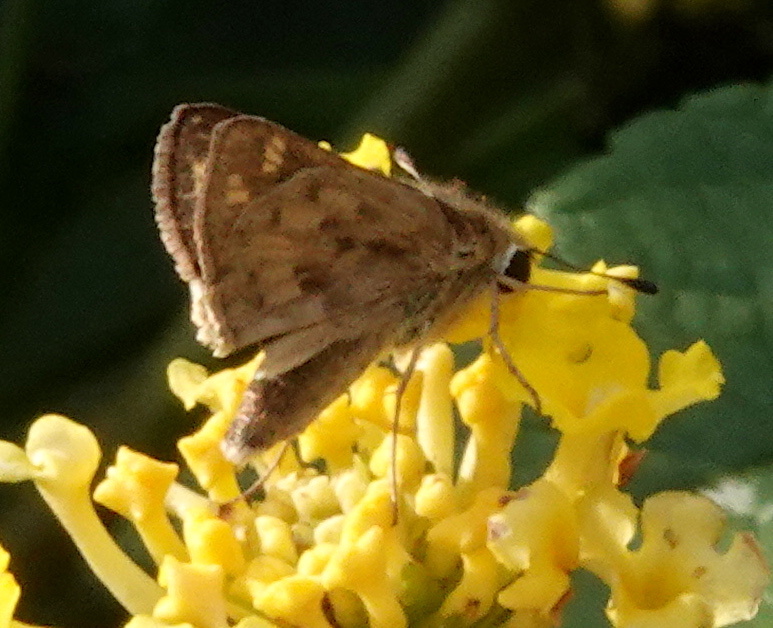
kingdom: Animalia
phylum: Arthropoda
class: Insecta
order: Lepidoptera
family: Hesperiidae
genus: Hylephila
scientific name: Hylephila phyleus
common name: Fiery skipper
